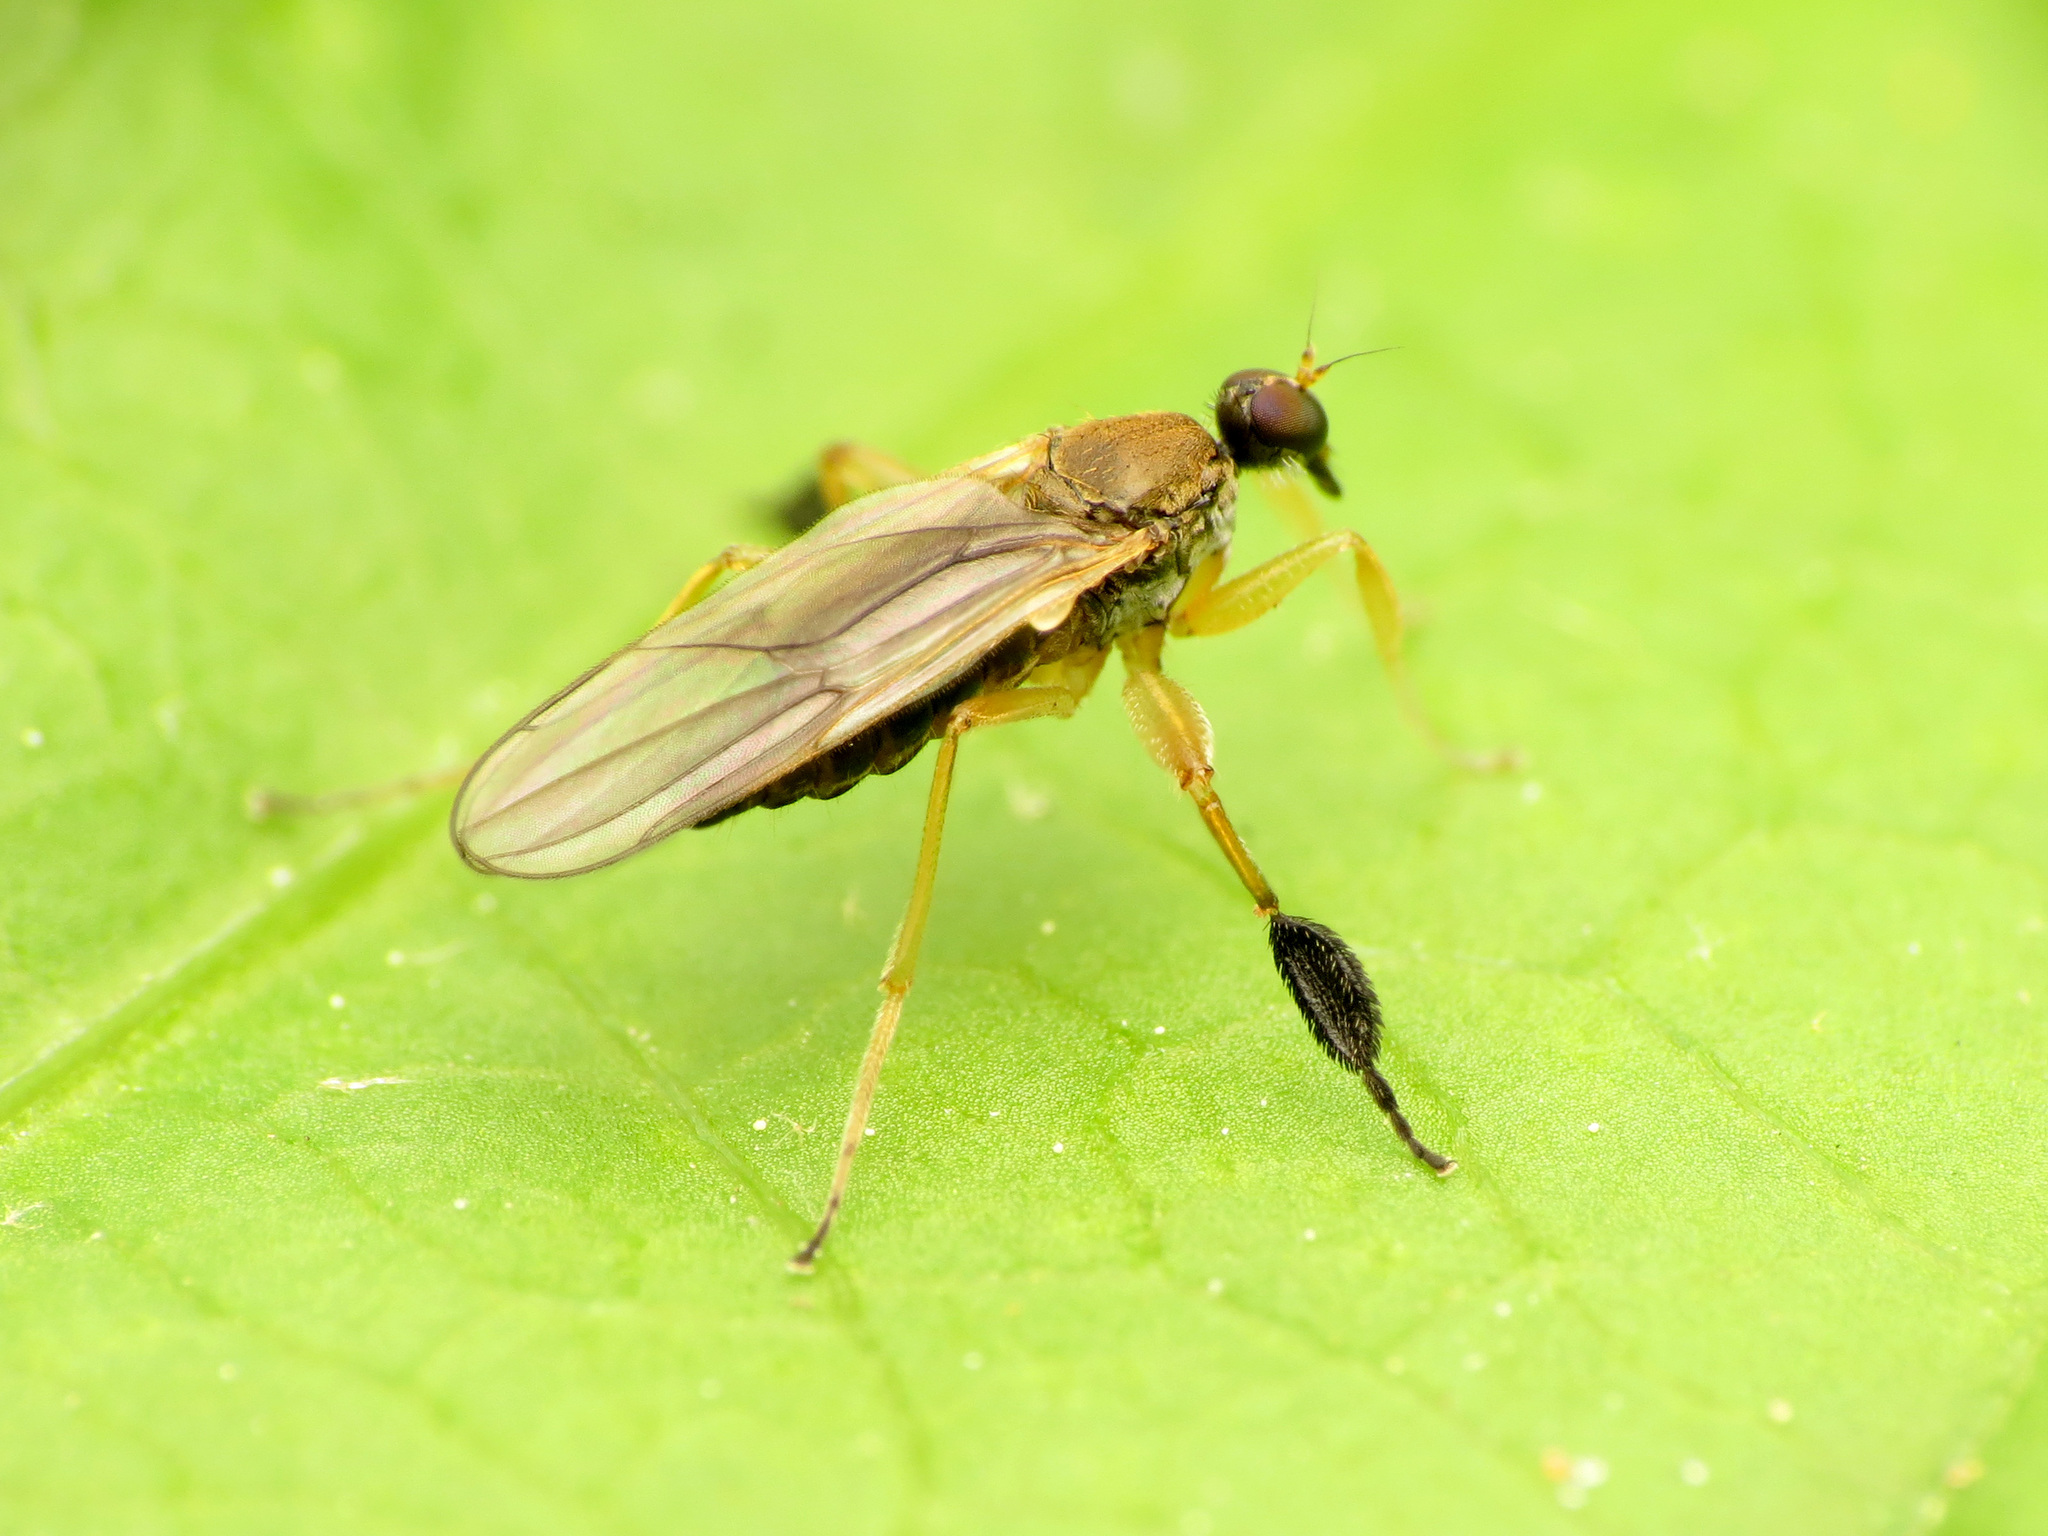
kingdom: Animalia
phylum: Arthropoda
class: Insecta
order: Diptera
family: Hybotidae
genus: Platypalpus
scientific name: Platypalpus discifer
